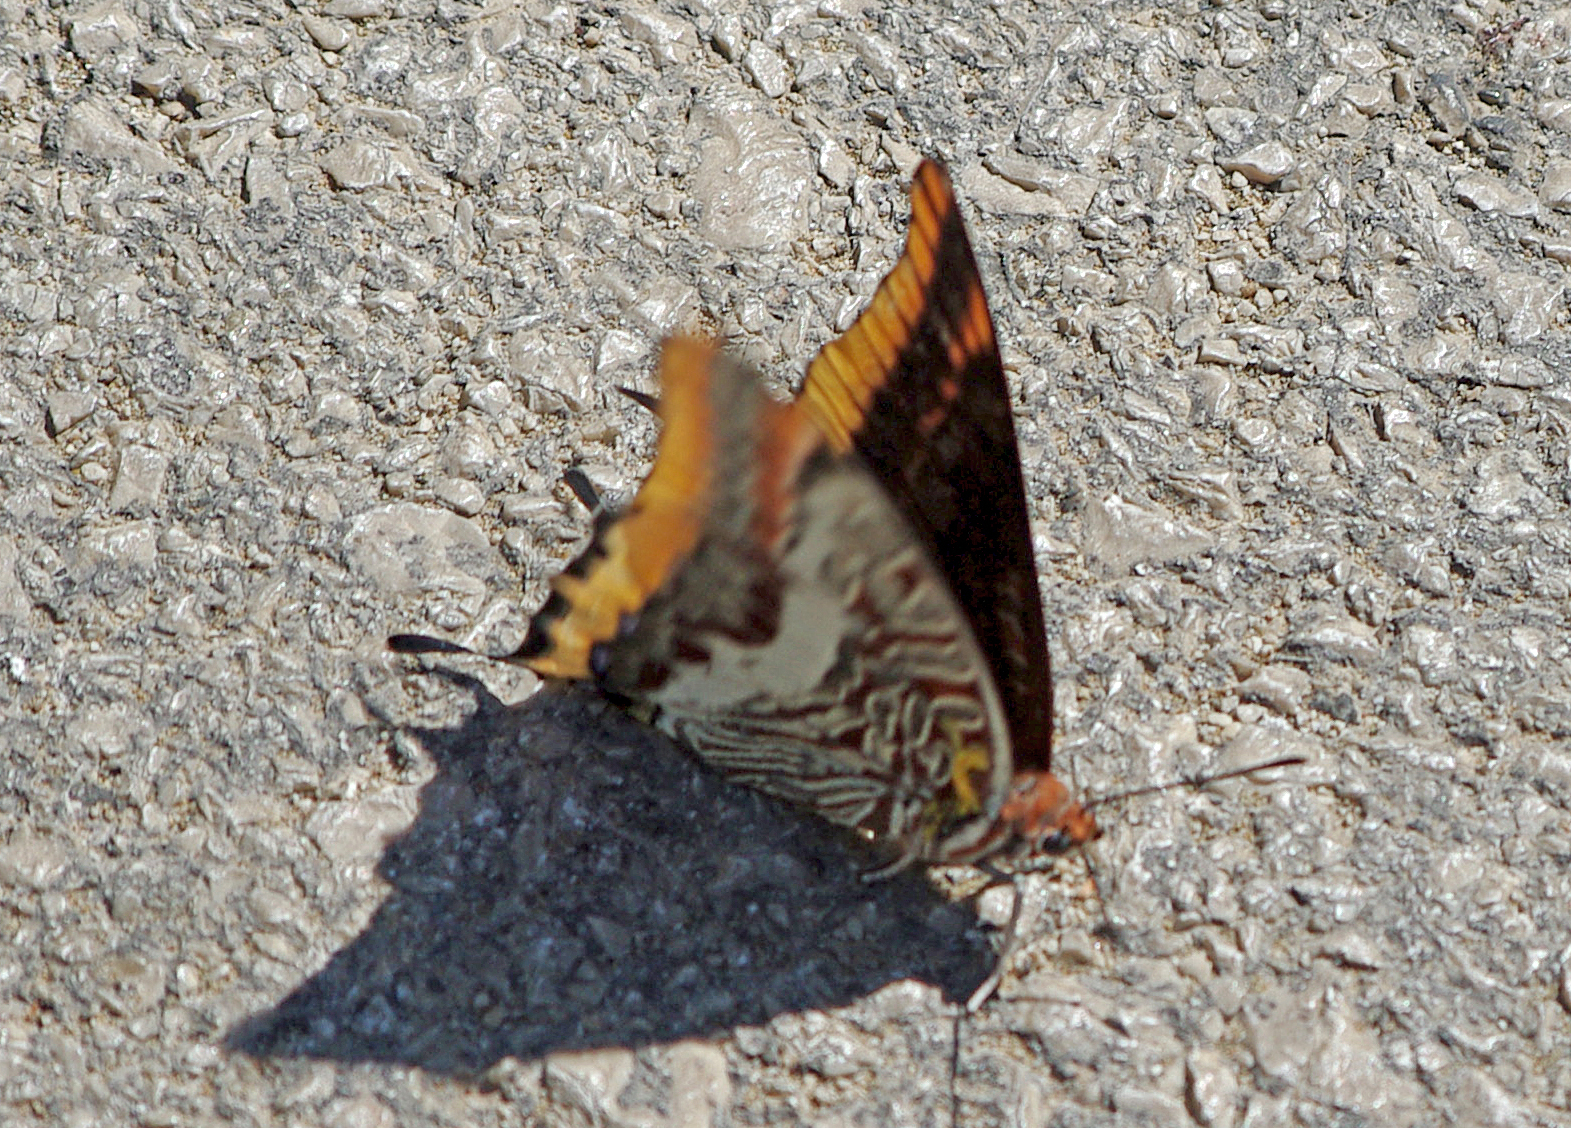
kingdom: Animalia
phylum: Arthropoda
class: Insecta
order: Lepidoptera
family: Nymphalidae
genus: Charaxes
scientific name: Charaxes jasius
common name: Two tailed pasha
